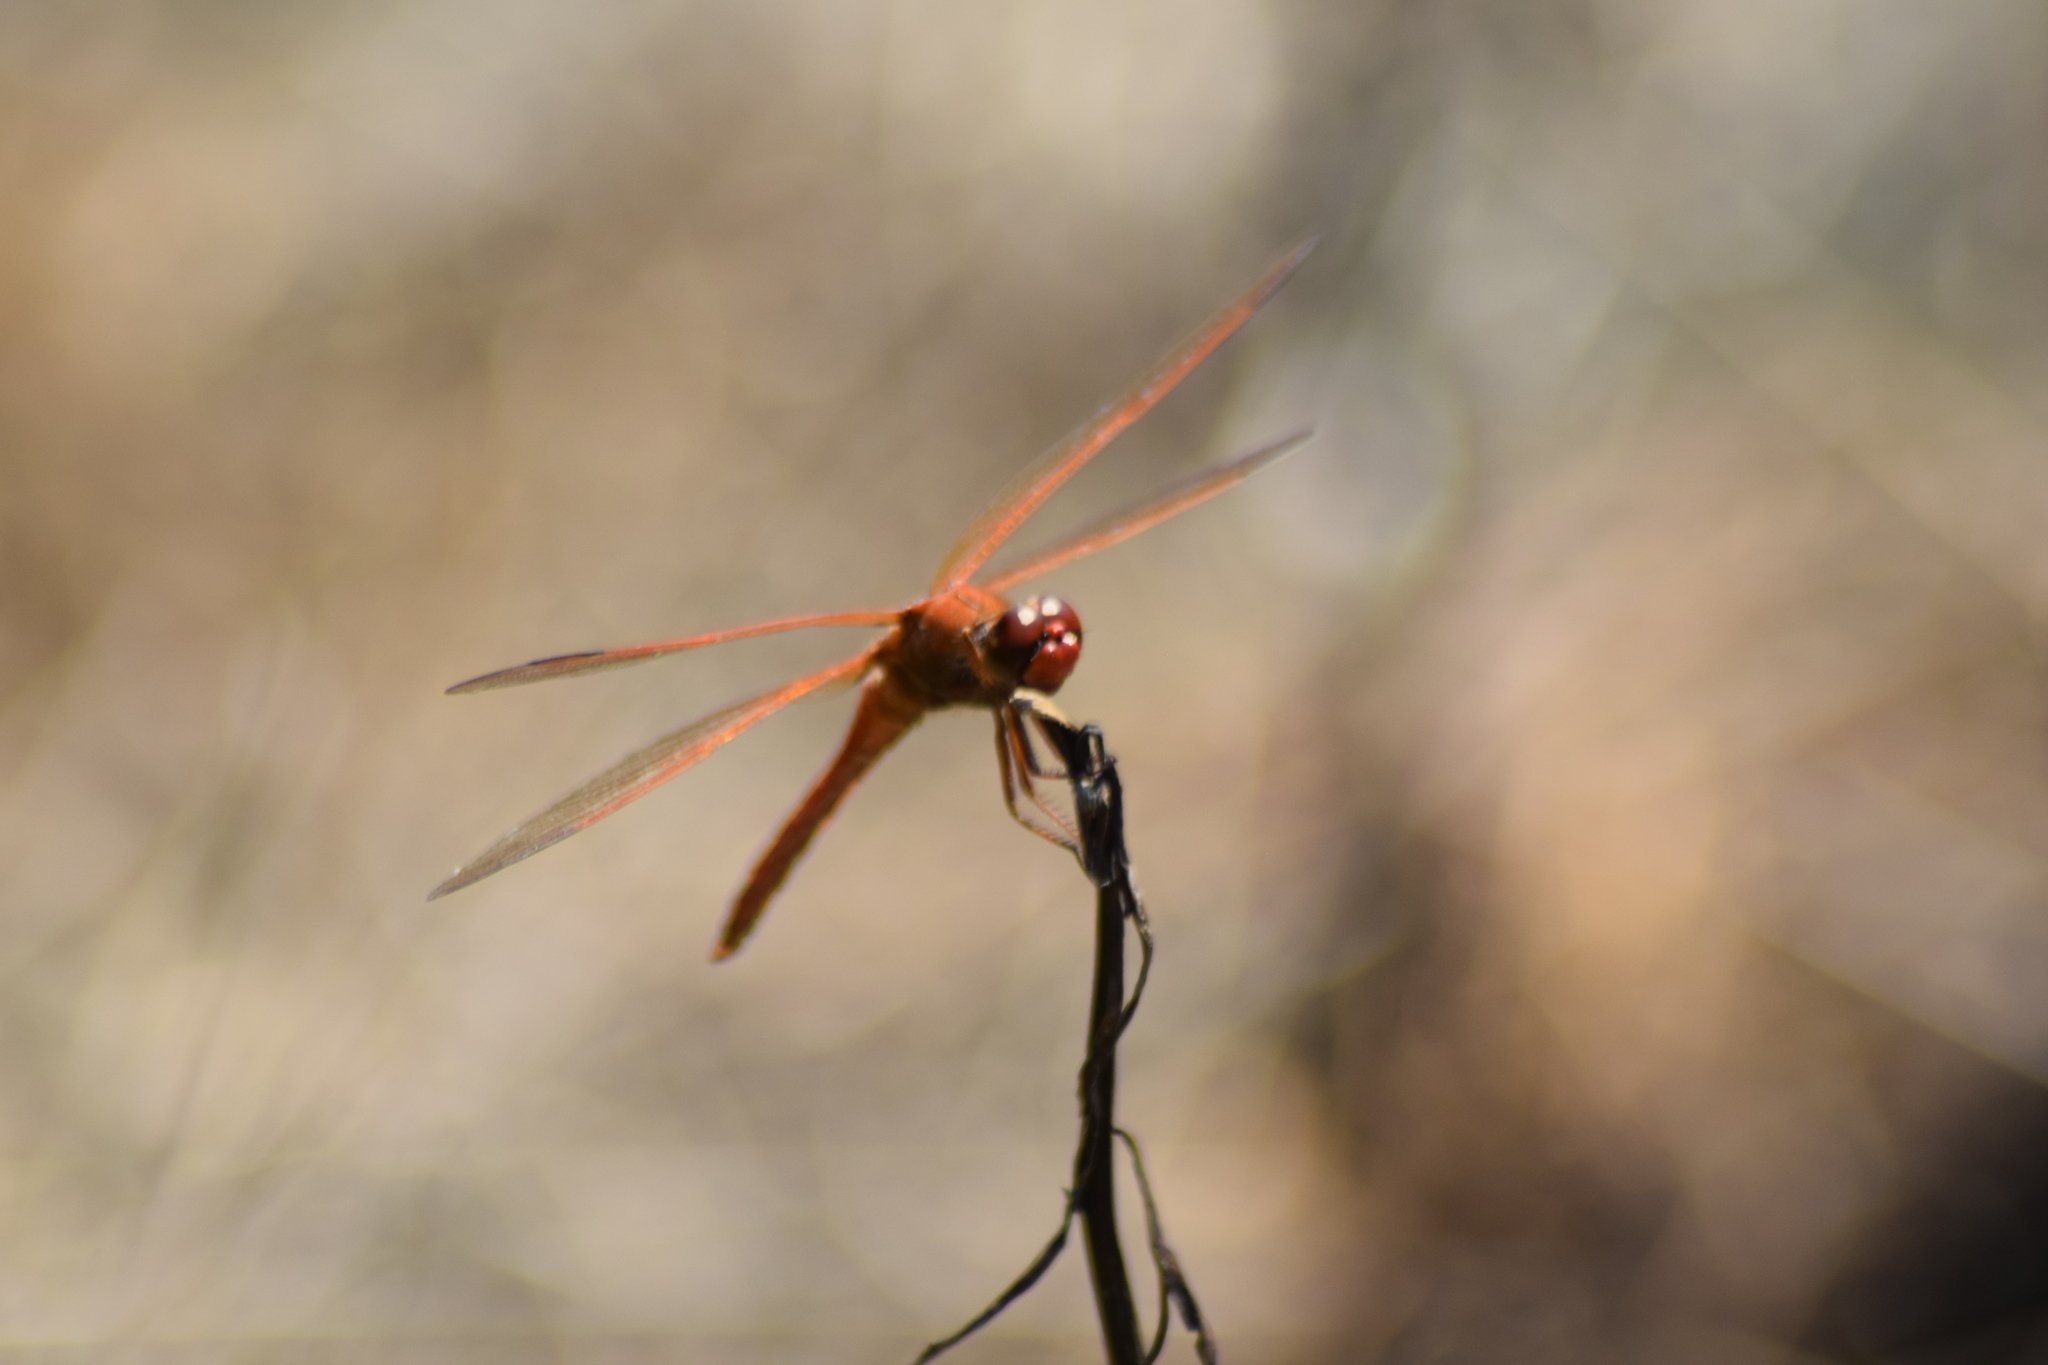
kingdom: Animalia
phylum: Arthropoda
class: Insecta
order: Odonata
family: Libellulidae
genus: Libellula
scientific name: Libellula needhami
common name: Needham's skimmer
